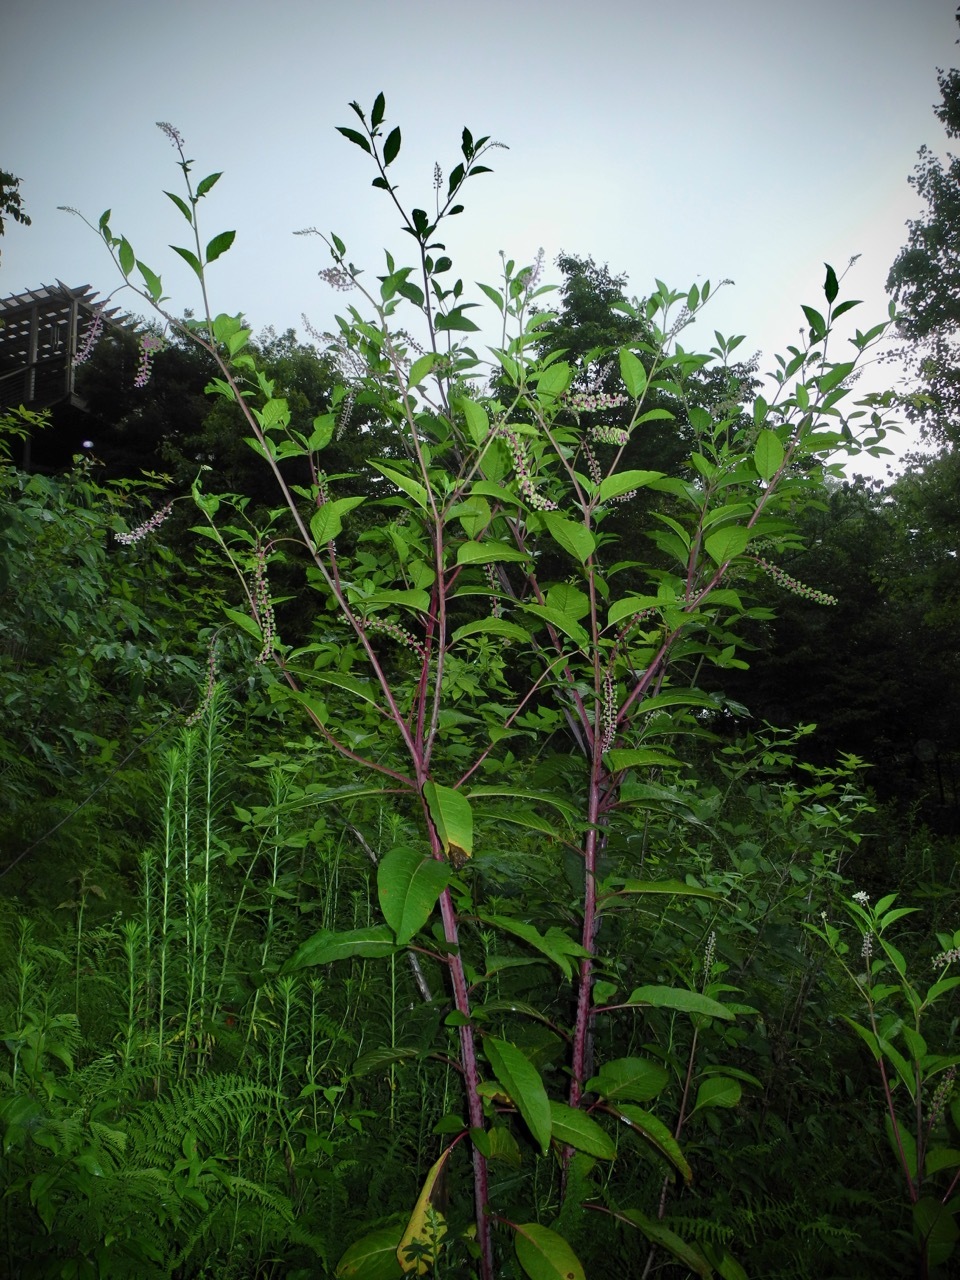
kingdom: Plantae
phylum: Tracheophyta
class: Magnoliopsida
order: Caryophyllales
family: Phytolaccaceae
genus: Phytolacca
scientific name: Phytolacca americana
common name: American pokeweed
